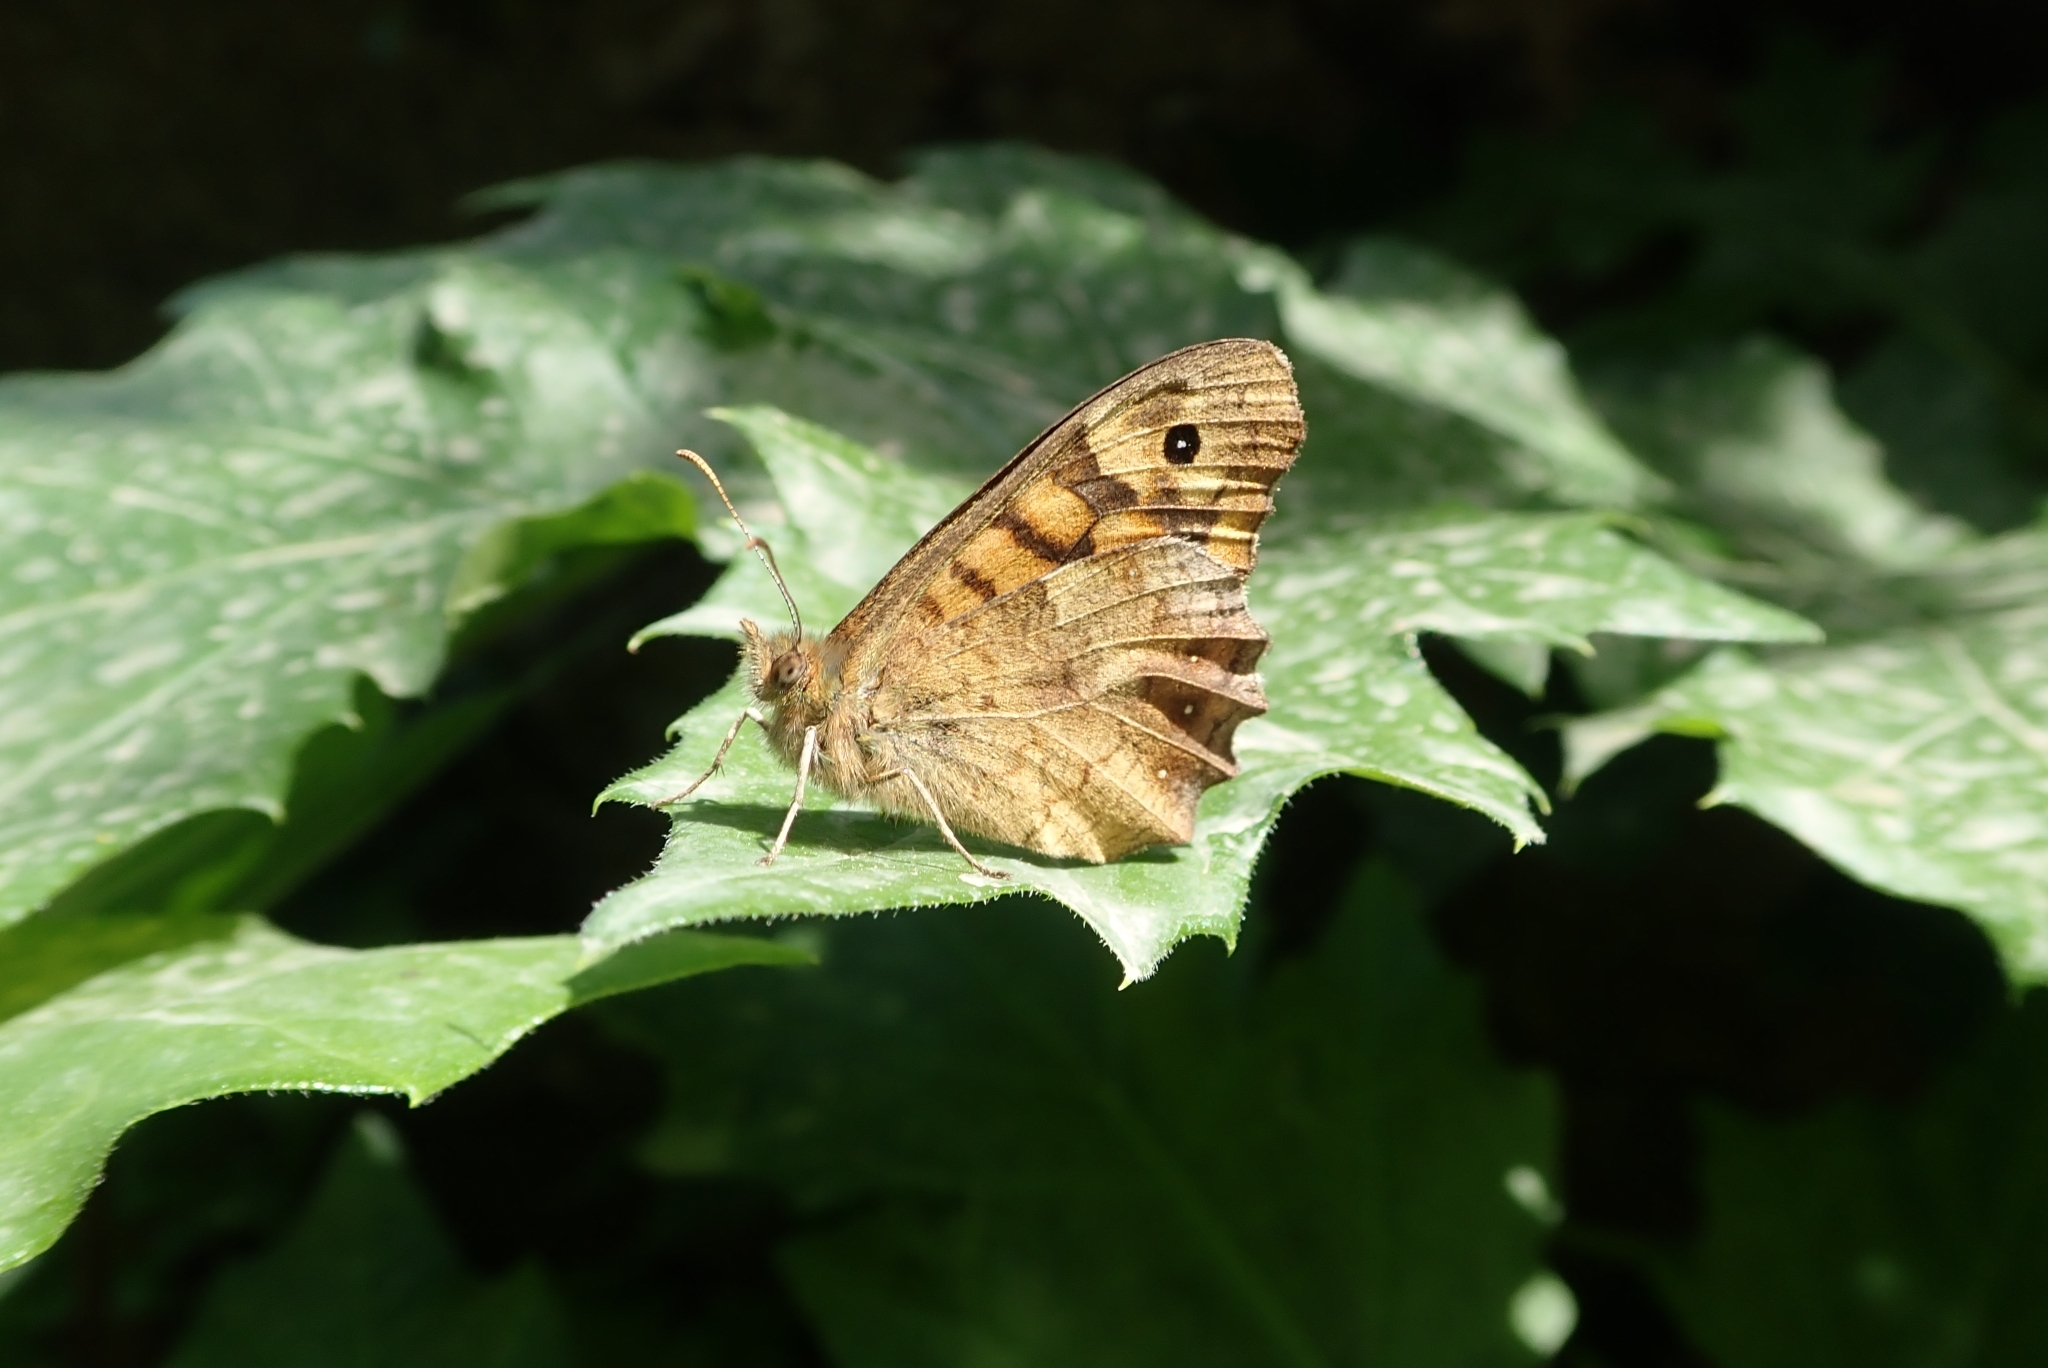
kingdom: Animalia
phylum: Arthropoda
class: Insecta
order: Lepidoptera
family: Nymphalidae
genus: Pararge
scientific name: Pararge aegeria
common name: Speckled wood
